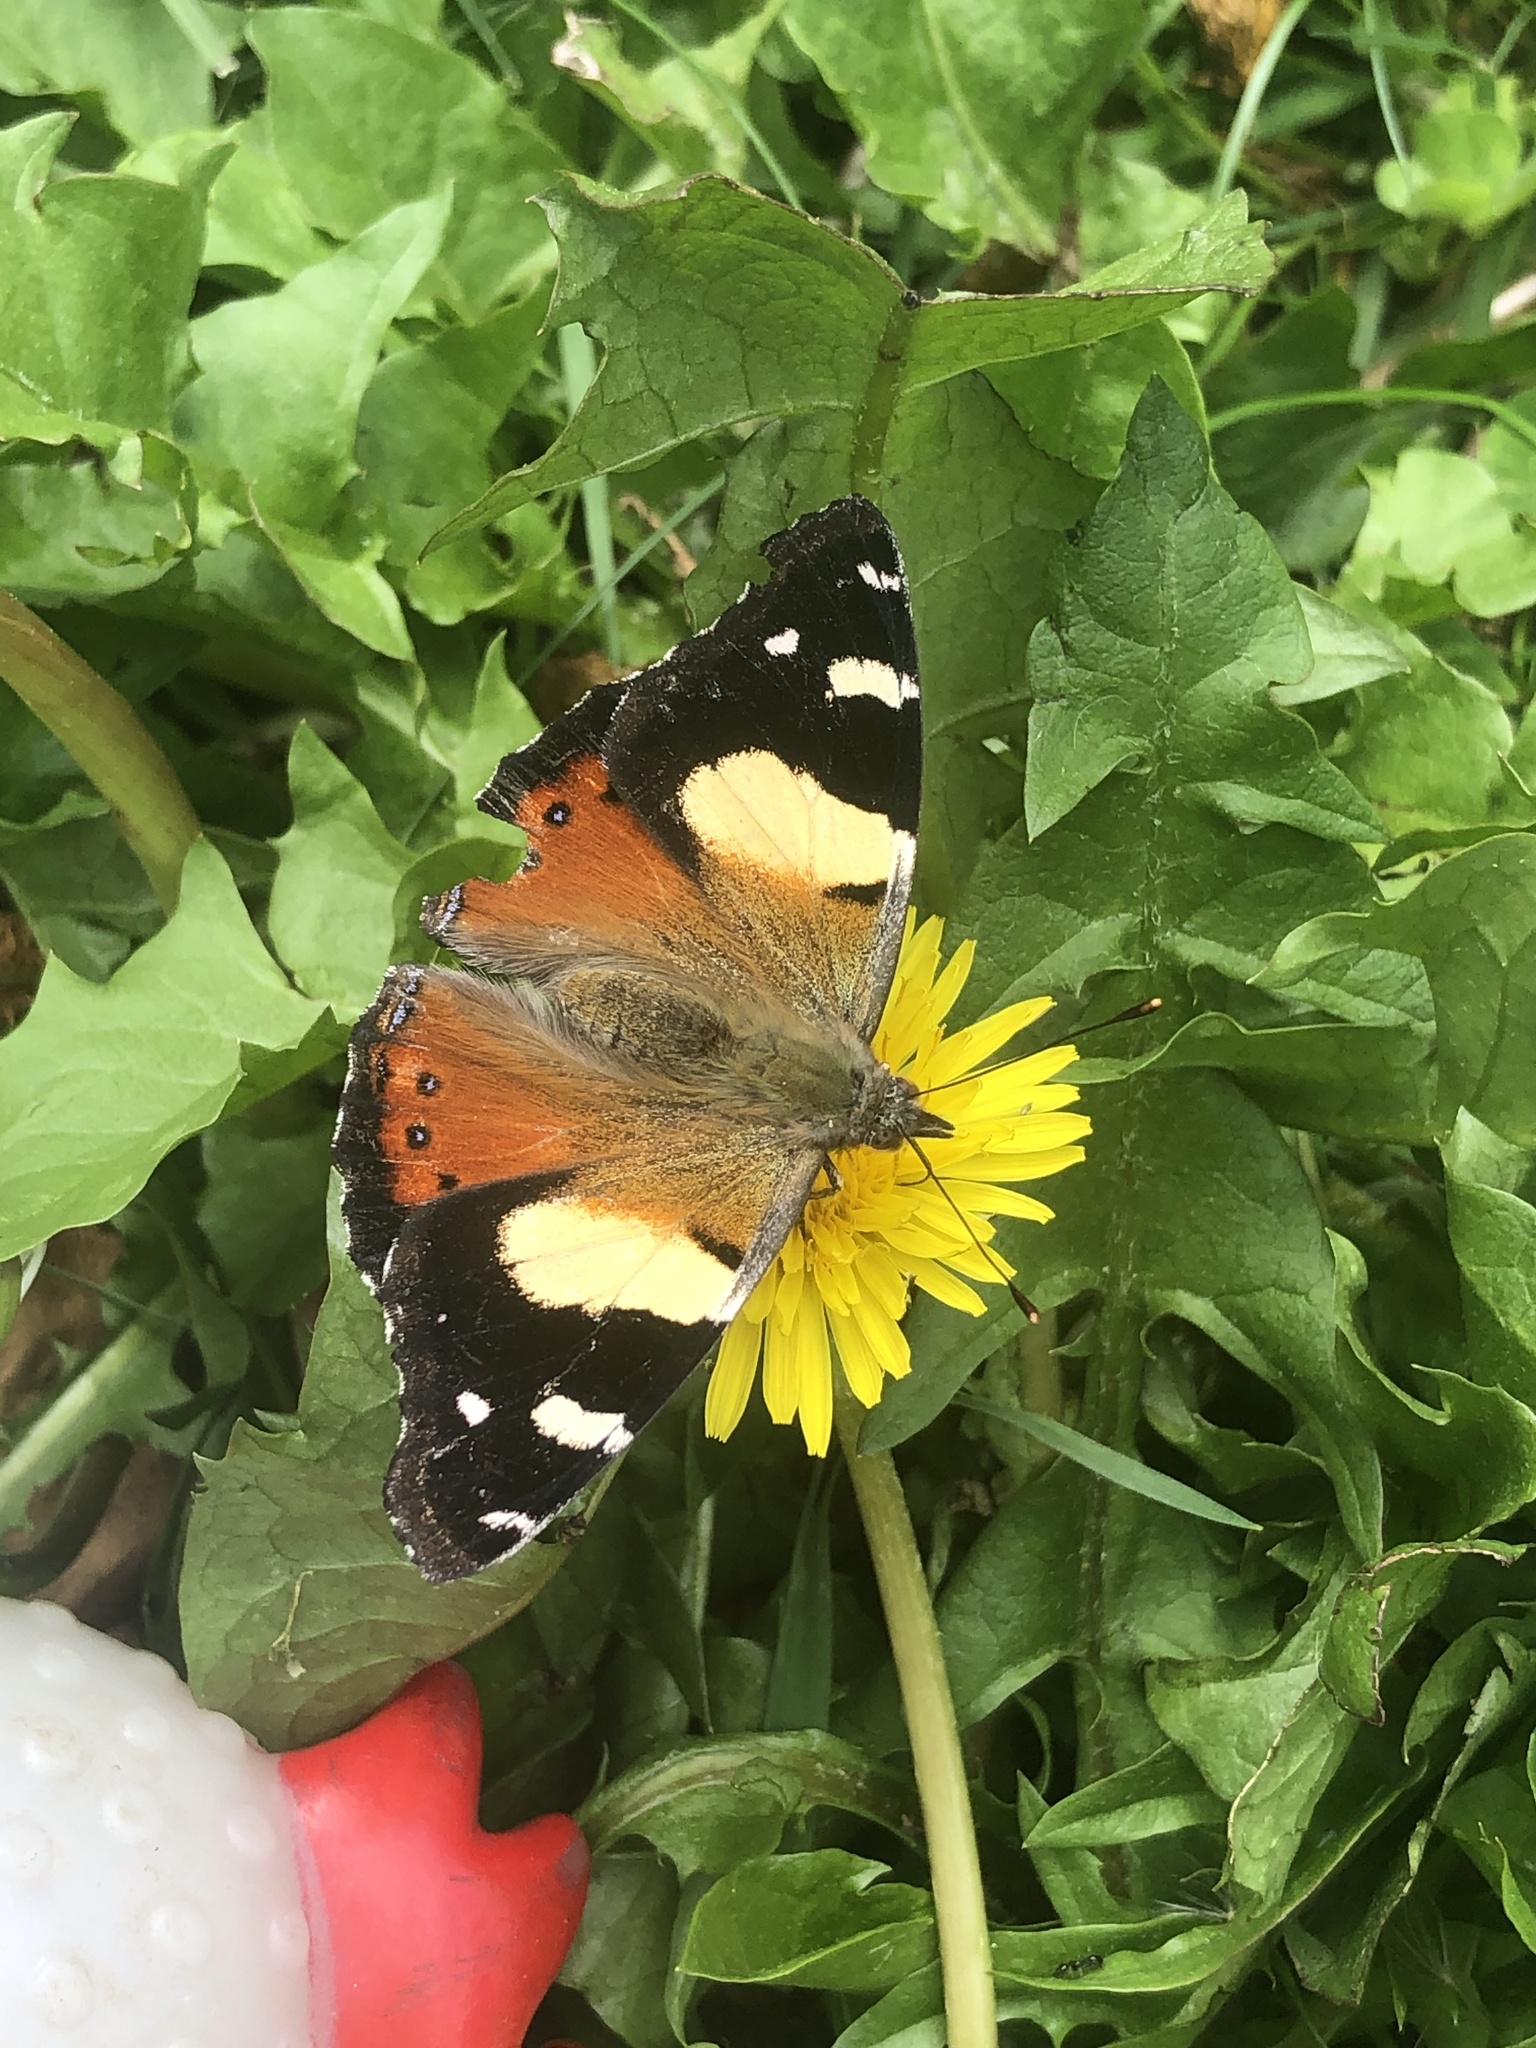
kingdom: Animalia
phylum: Arthropoda
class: Insecta
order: Lepidoptera
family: Nymphalidae
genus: Vanessa
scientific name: Vanessa itea
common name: Yellow admiral
